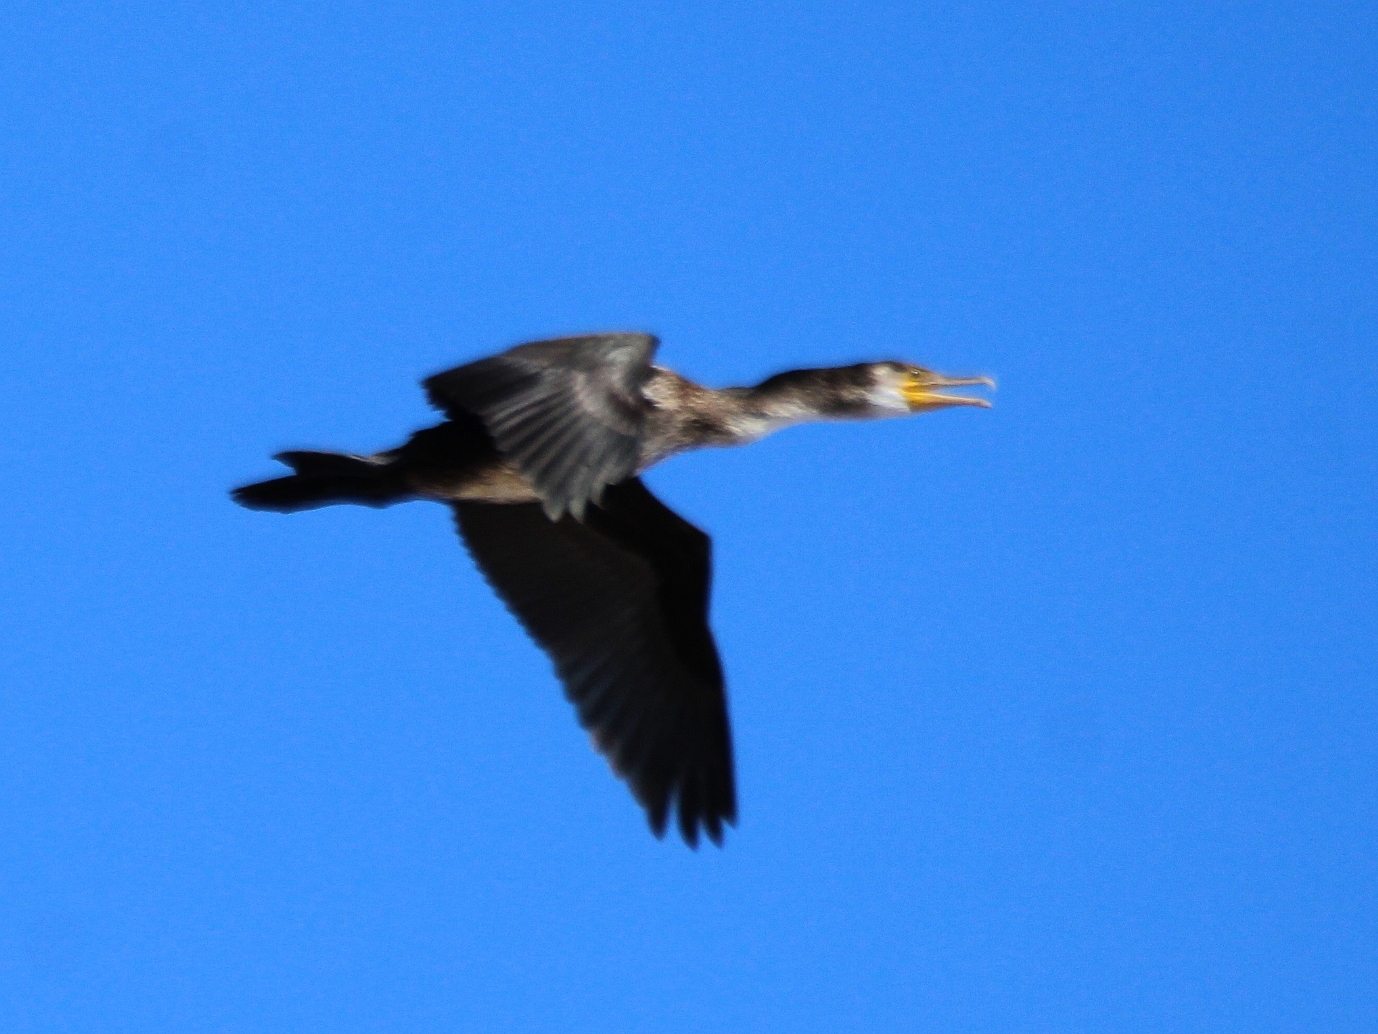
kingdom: Animalia
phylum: Chordata
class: Aves
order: Suliformes
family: Phalacrocoracidae
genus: Phalacrocorax
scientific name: Phalacrocorax capillatus
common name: Japanese cormorant
